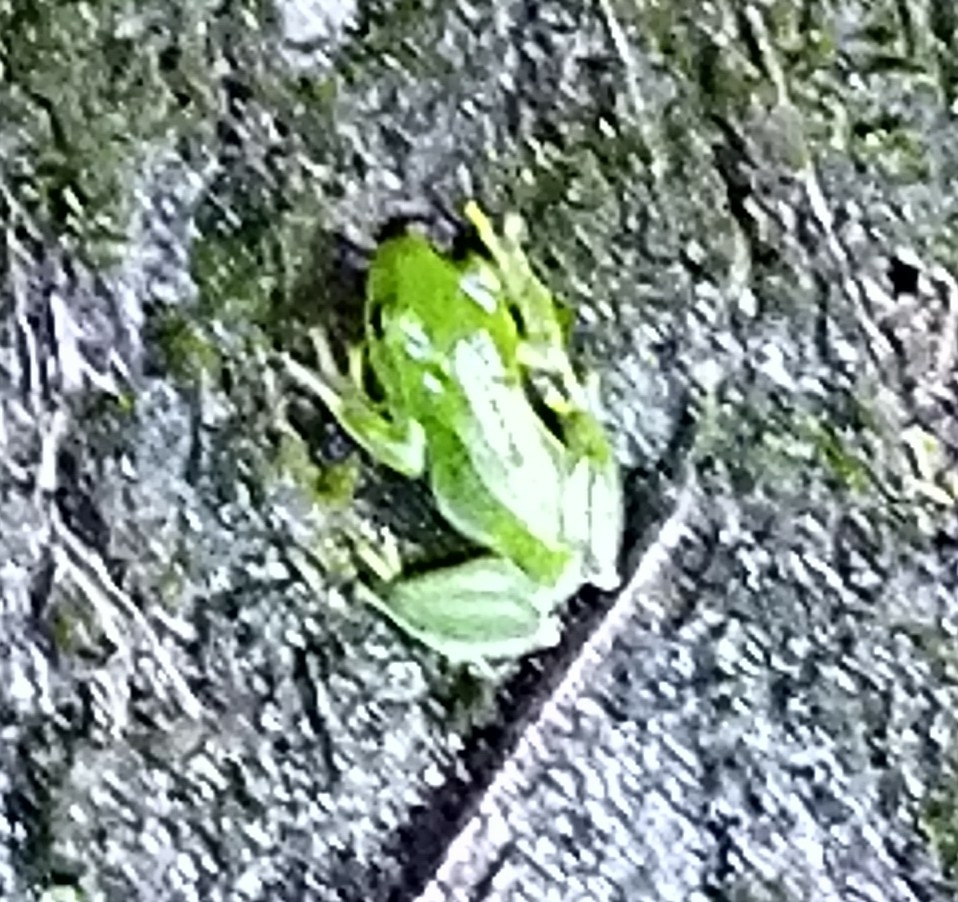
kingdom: Animalia
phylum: Chordata
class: Amphibia
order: Anura
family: Rhacophoridae
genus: Zhangixalus
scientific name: Zhangixalus moltrechti
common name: Moltrecht's treefrog
